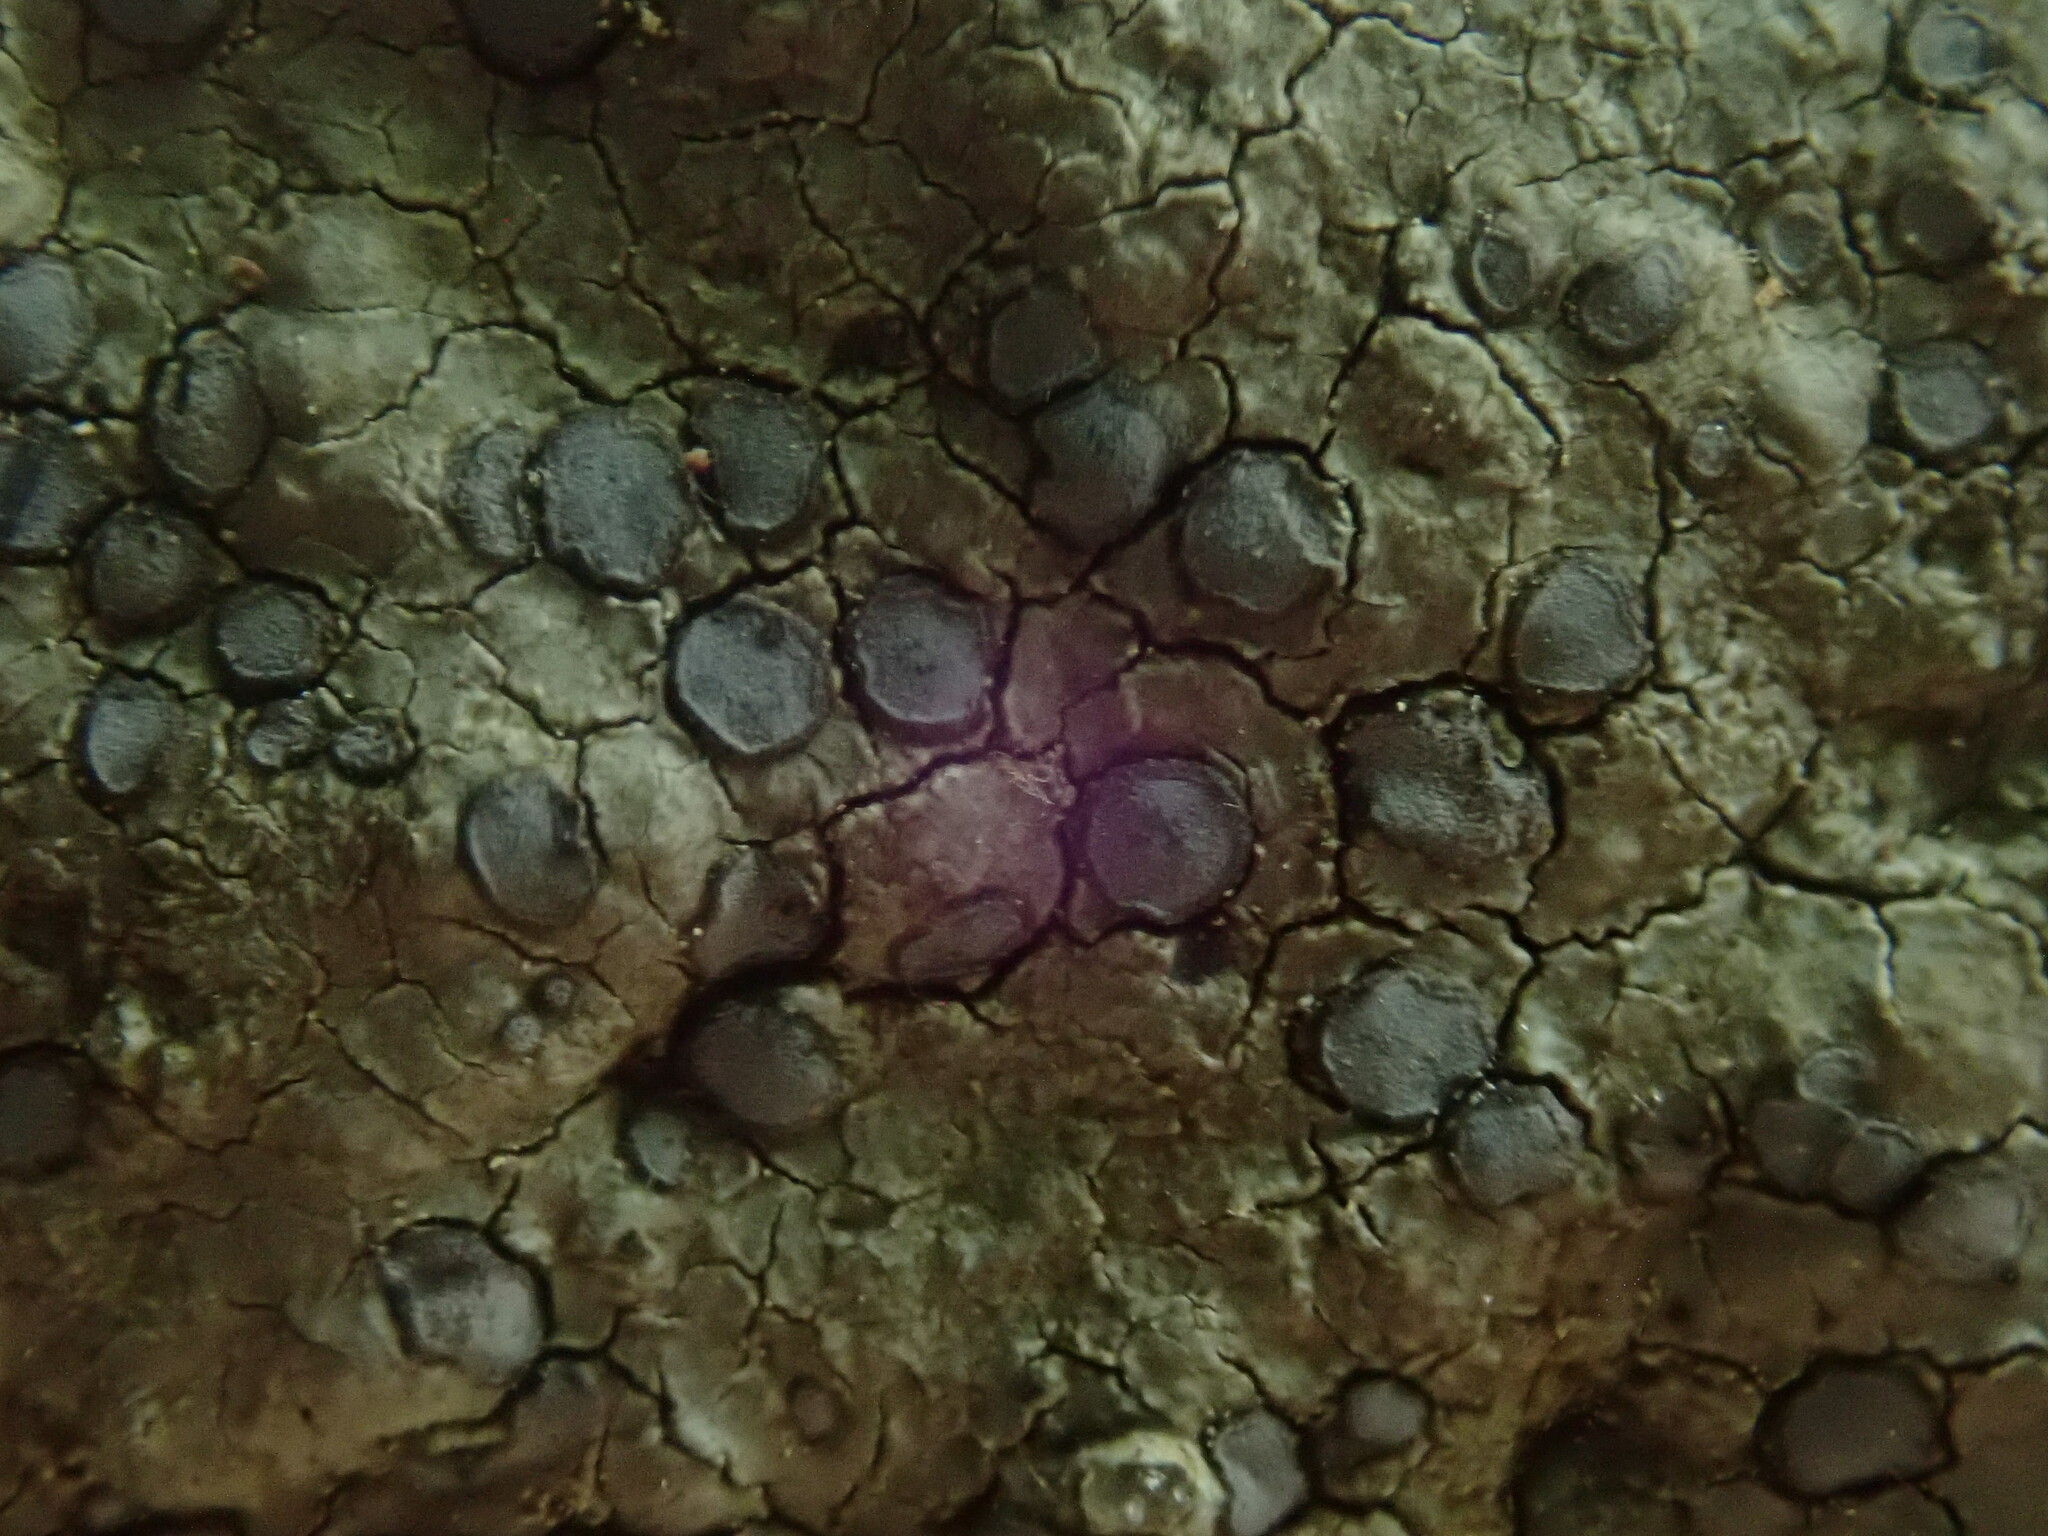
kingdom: Fungi
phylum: Ascomycota
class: Lecanoromycetes
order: Lecideales
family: Lecideaceae
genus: Porpidia
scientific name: Porpidia albocaerulescens
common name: Smokey-eyed boulder lichen
